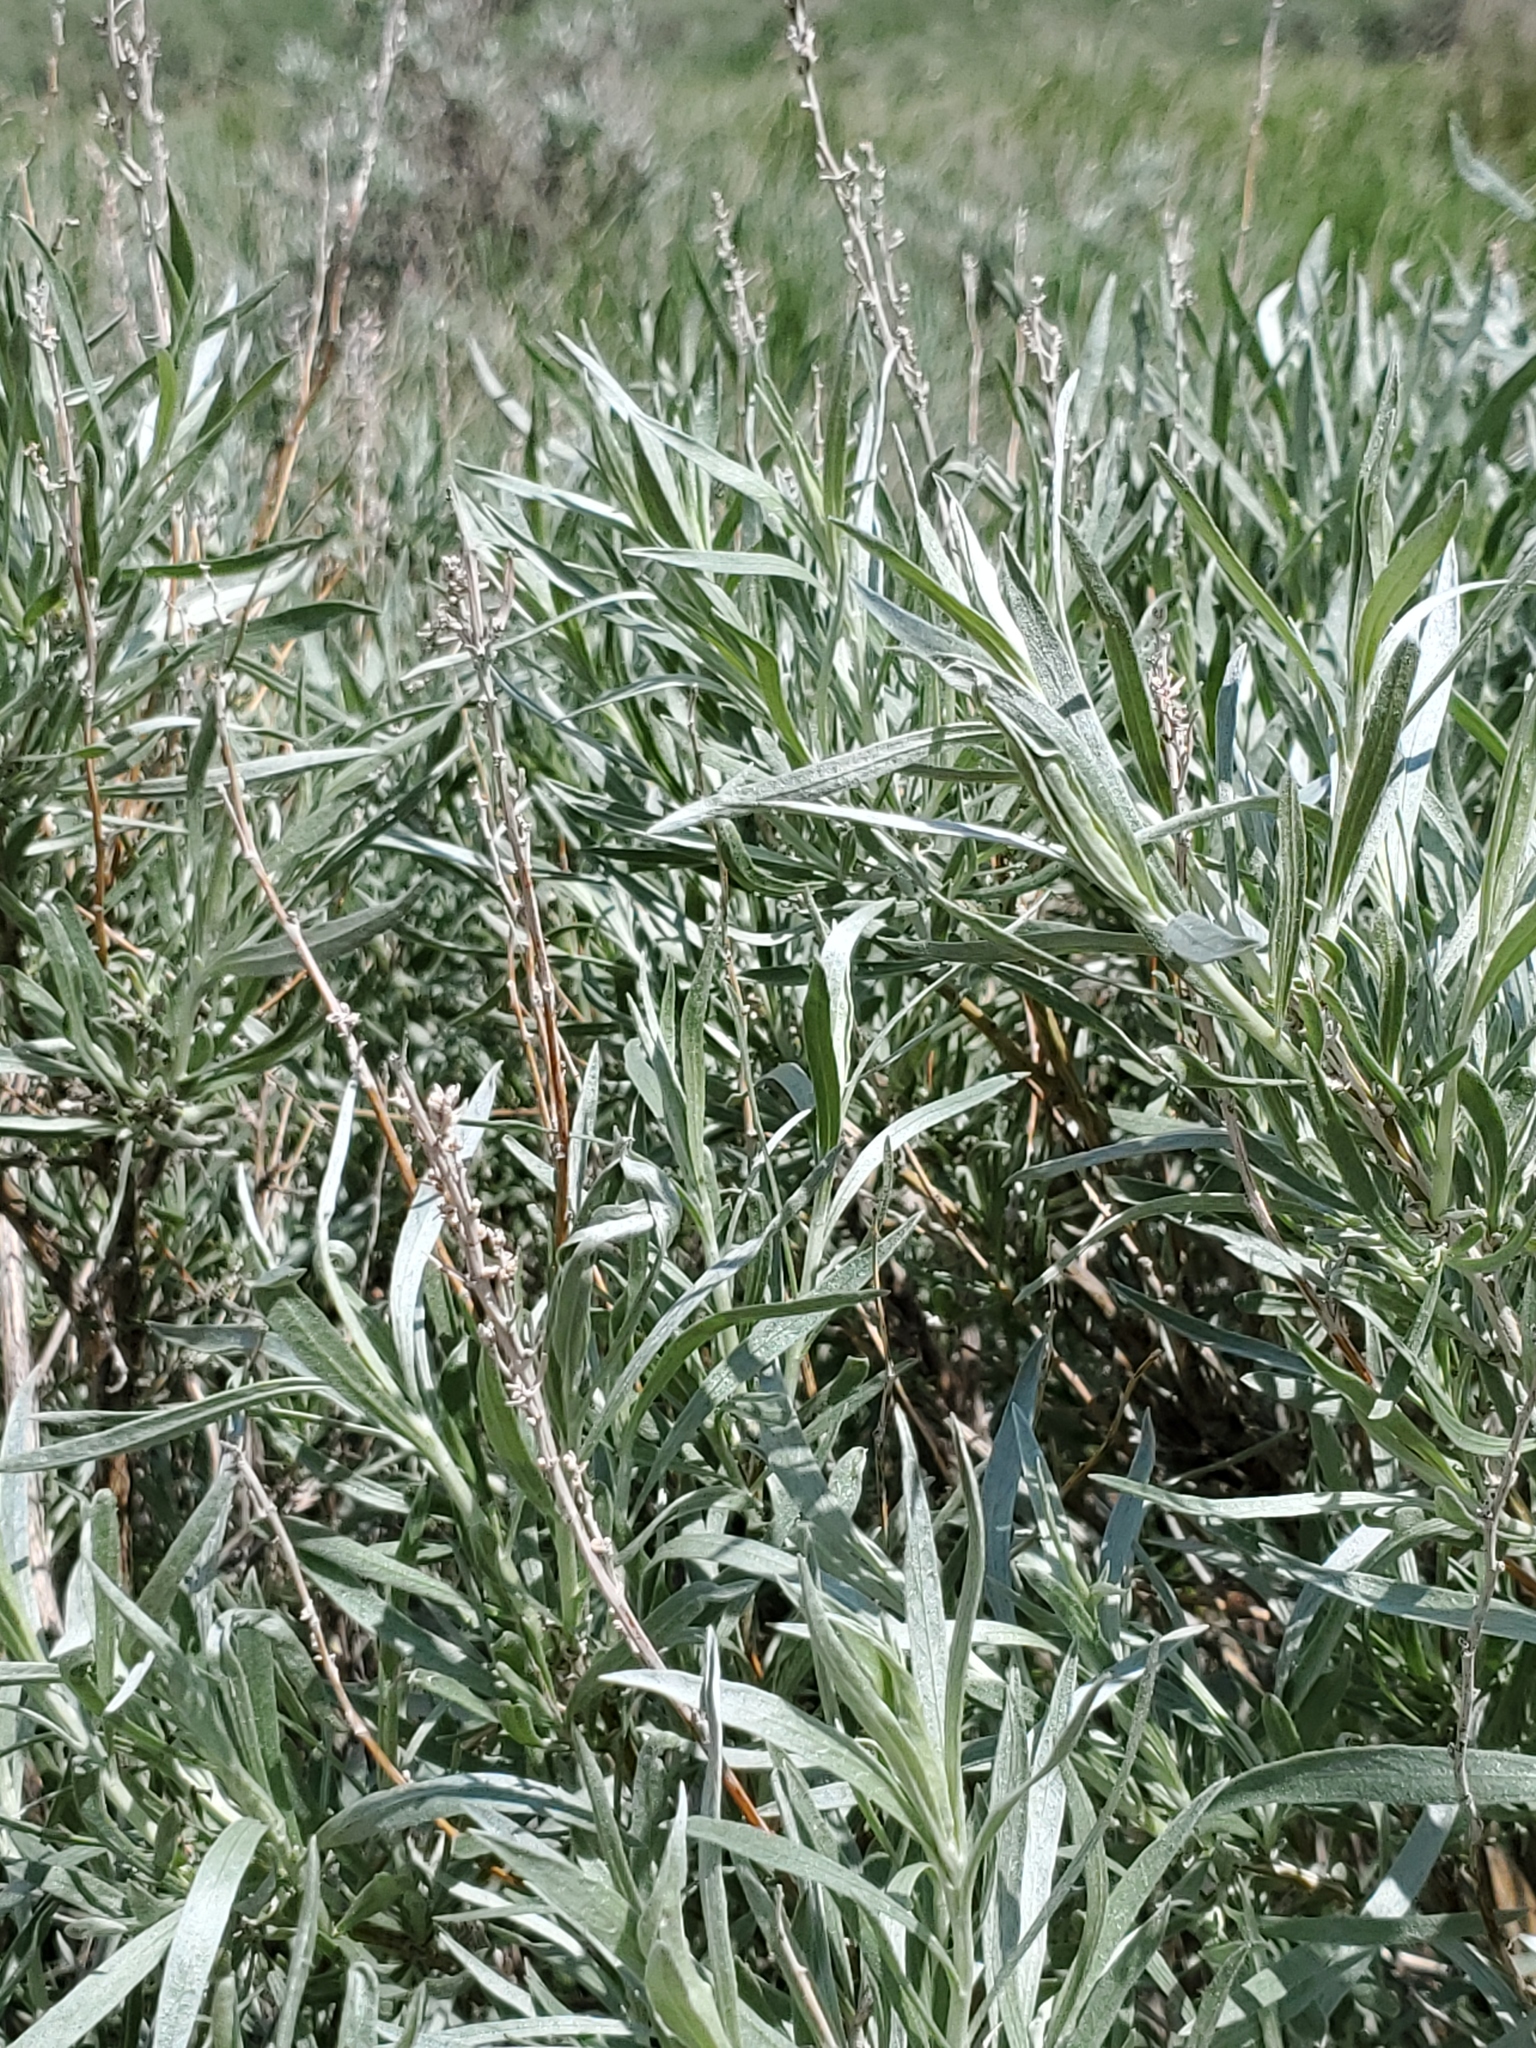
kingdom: Plantae
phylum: Tracheophyta
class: Magnoliopsida
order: Asterales
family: Asteraceae
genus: Artemisia
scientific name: Artemisia cana
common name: Silver sagebrush
